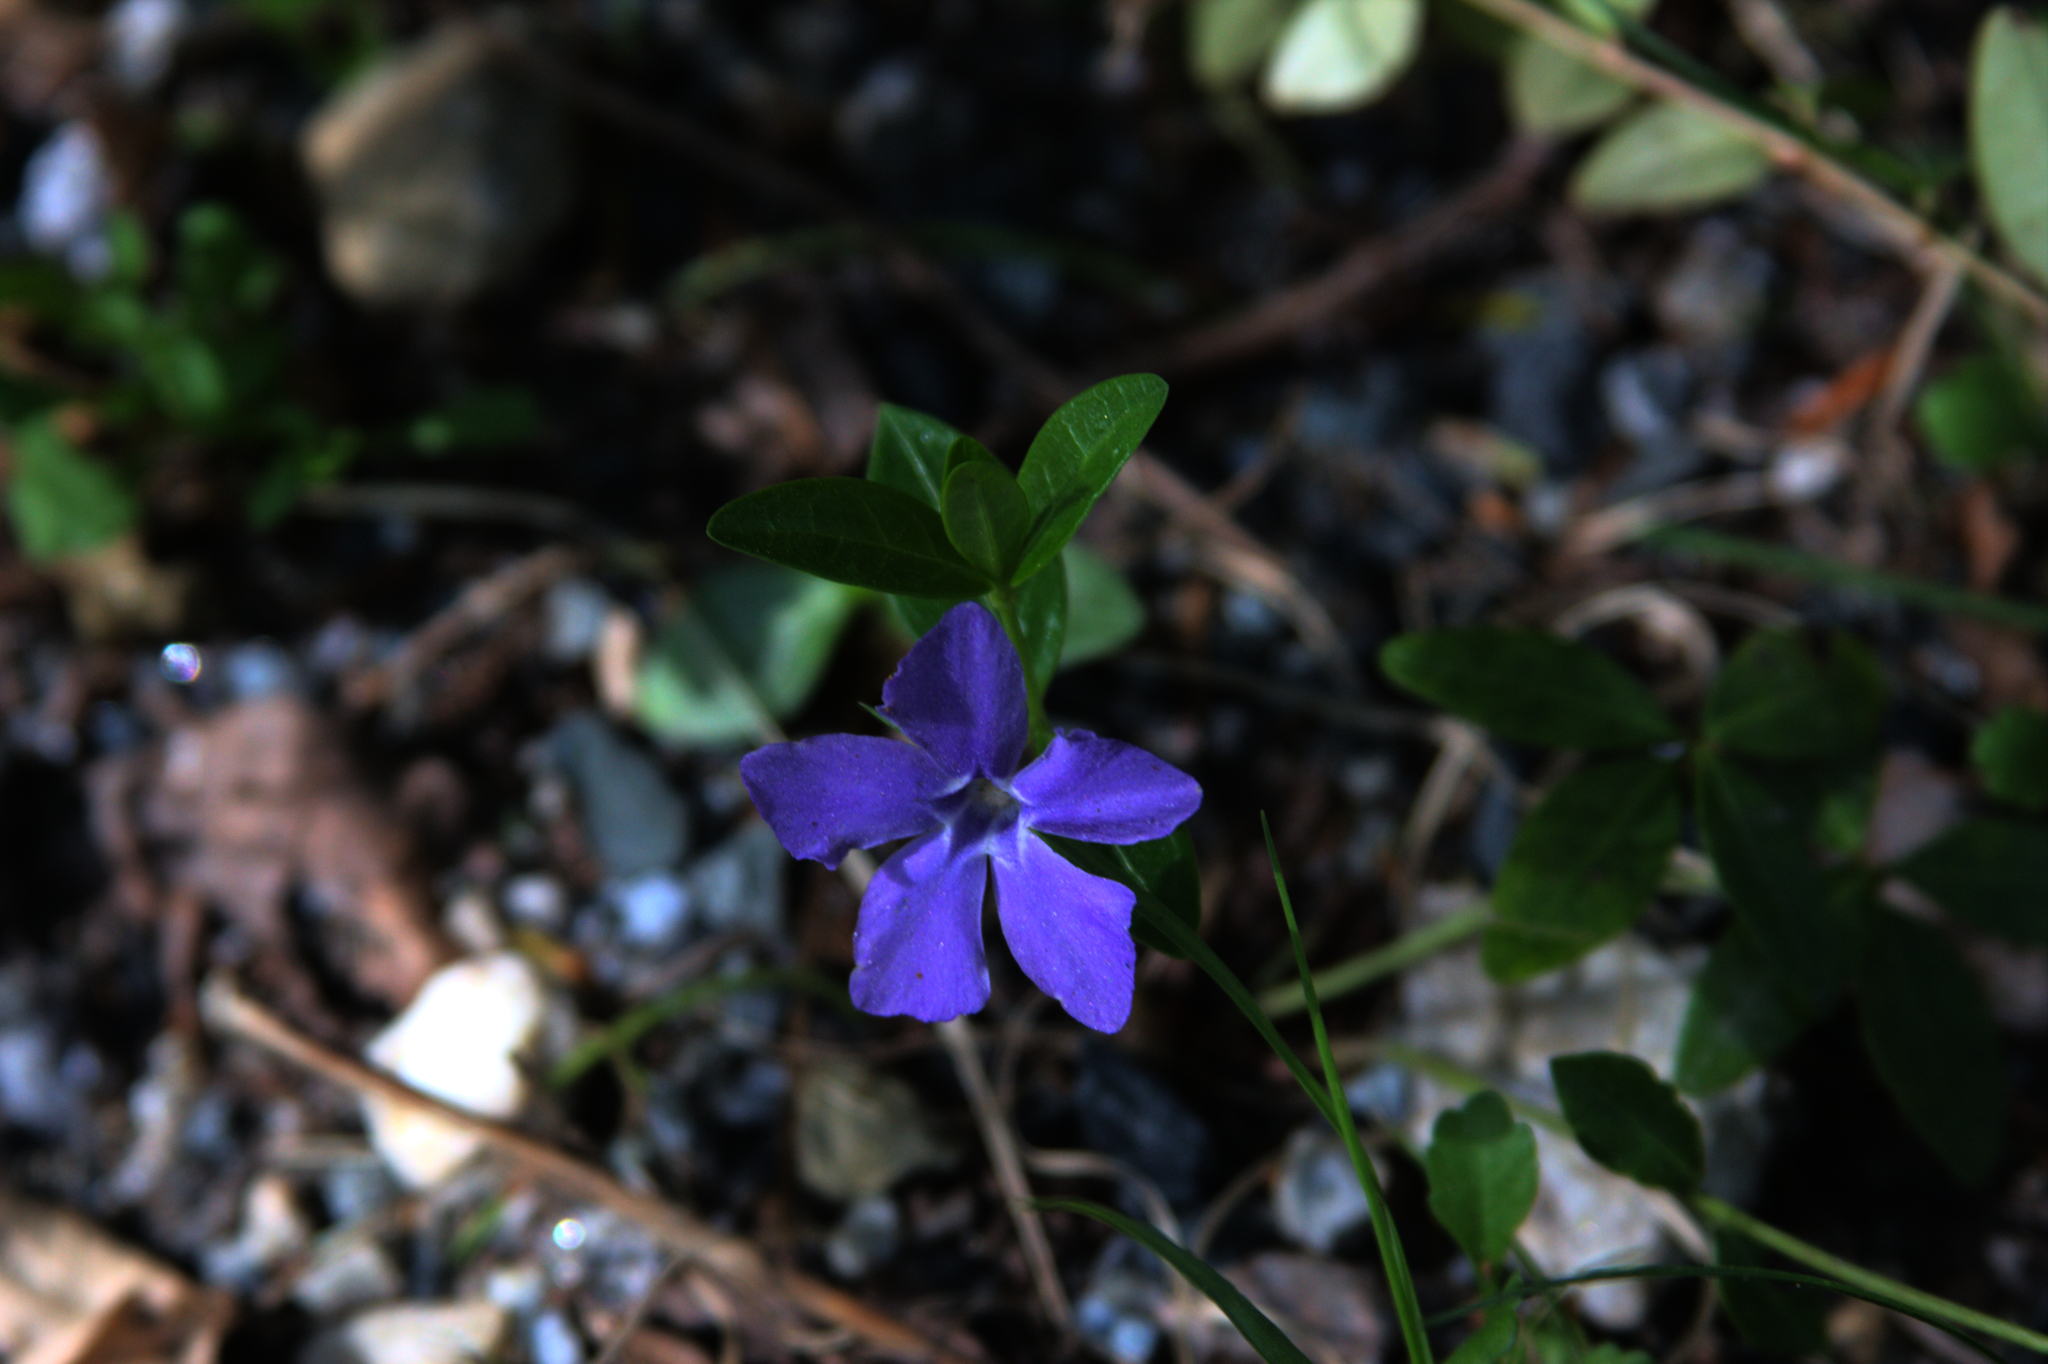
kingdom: Plantae
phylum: Tracheophyta
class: Magnoliopsida
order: Gentianales
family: Apocynaceae
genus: Vinca
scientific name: Vinca minor
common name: Lesser periwinkle
